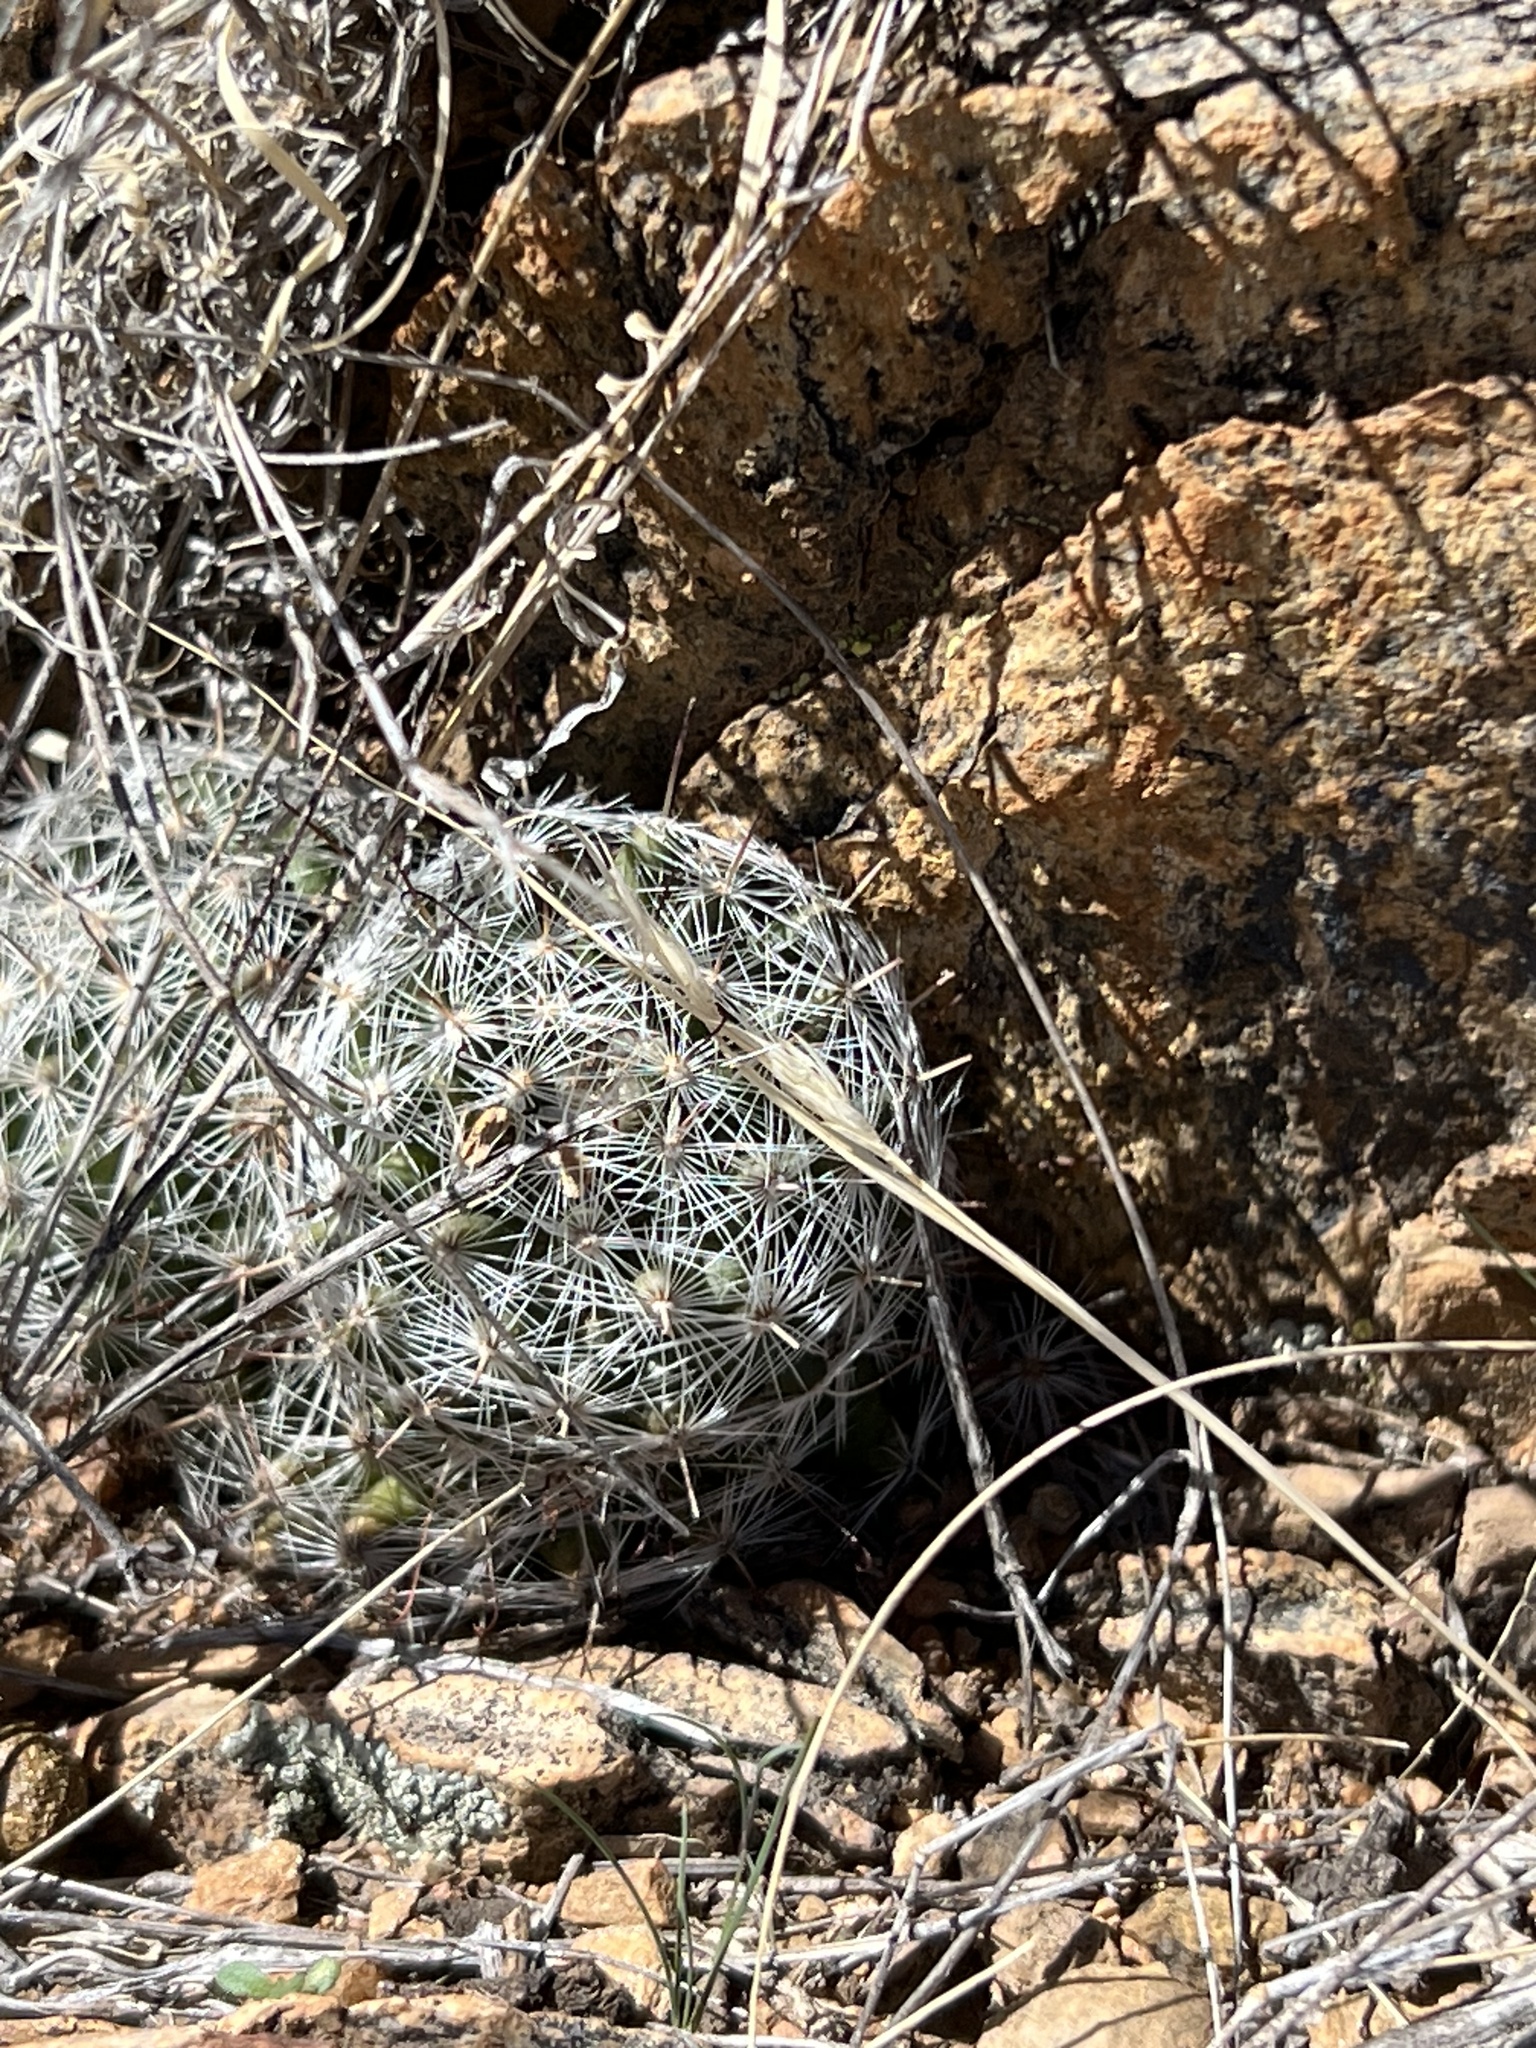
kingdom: Plantae
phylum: Tracheophyta
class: Magnoliopsida
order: Caryophyllales
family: Cactaceae
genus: Cochemiea
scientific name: Cochemiea grahamii
